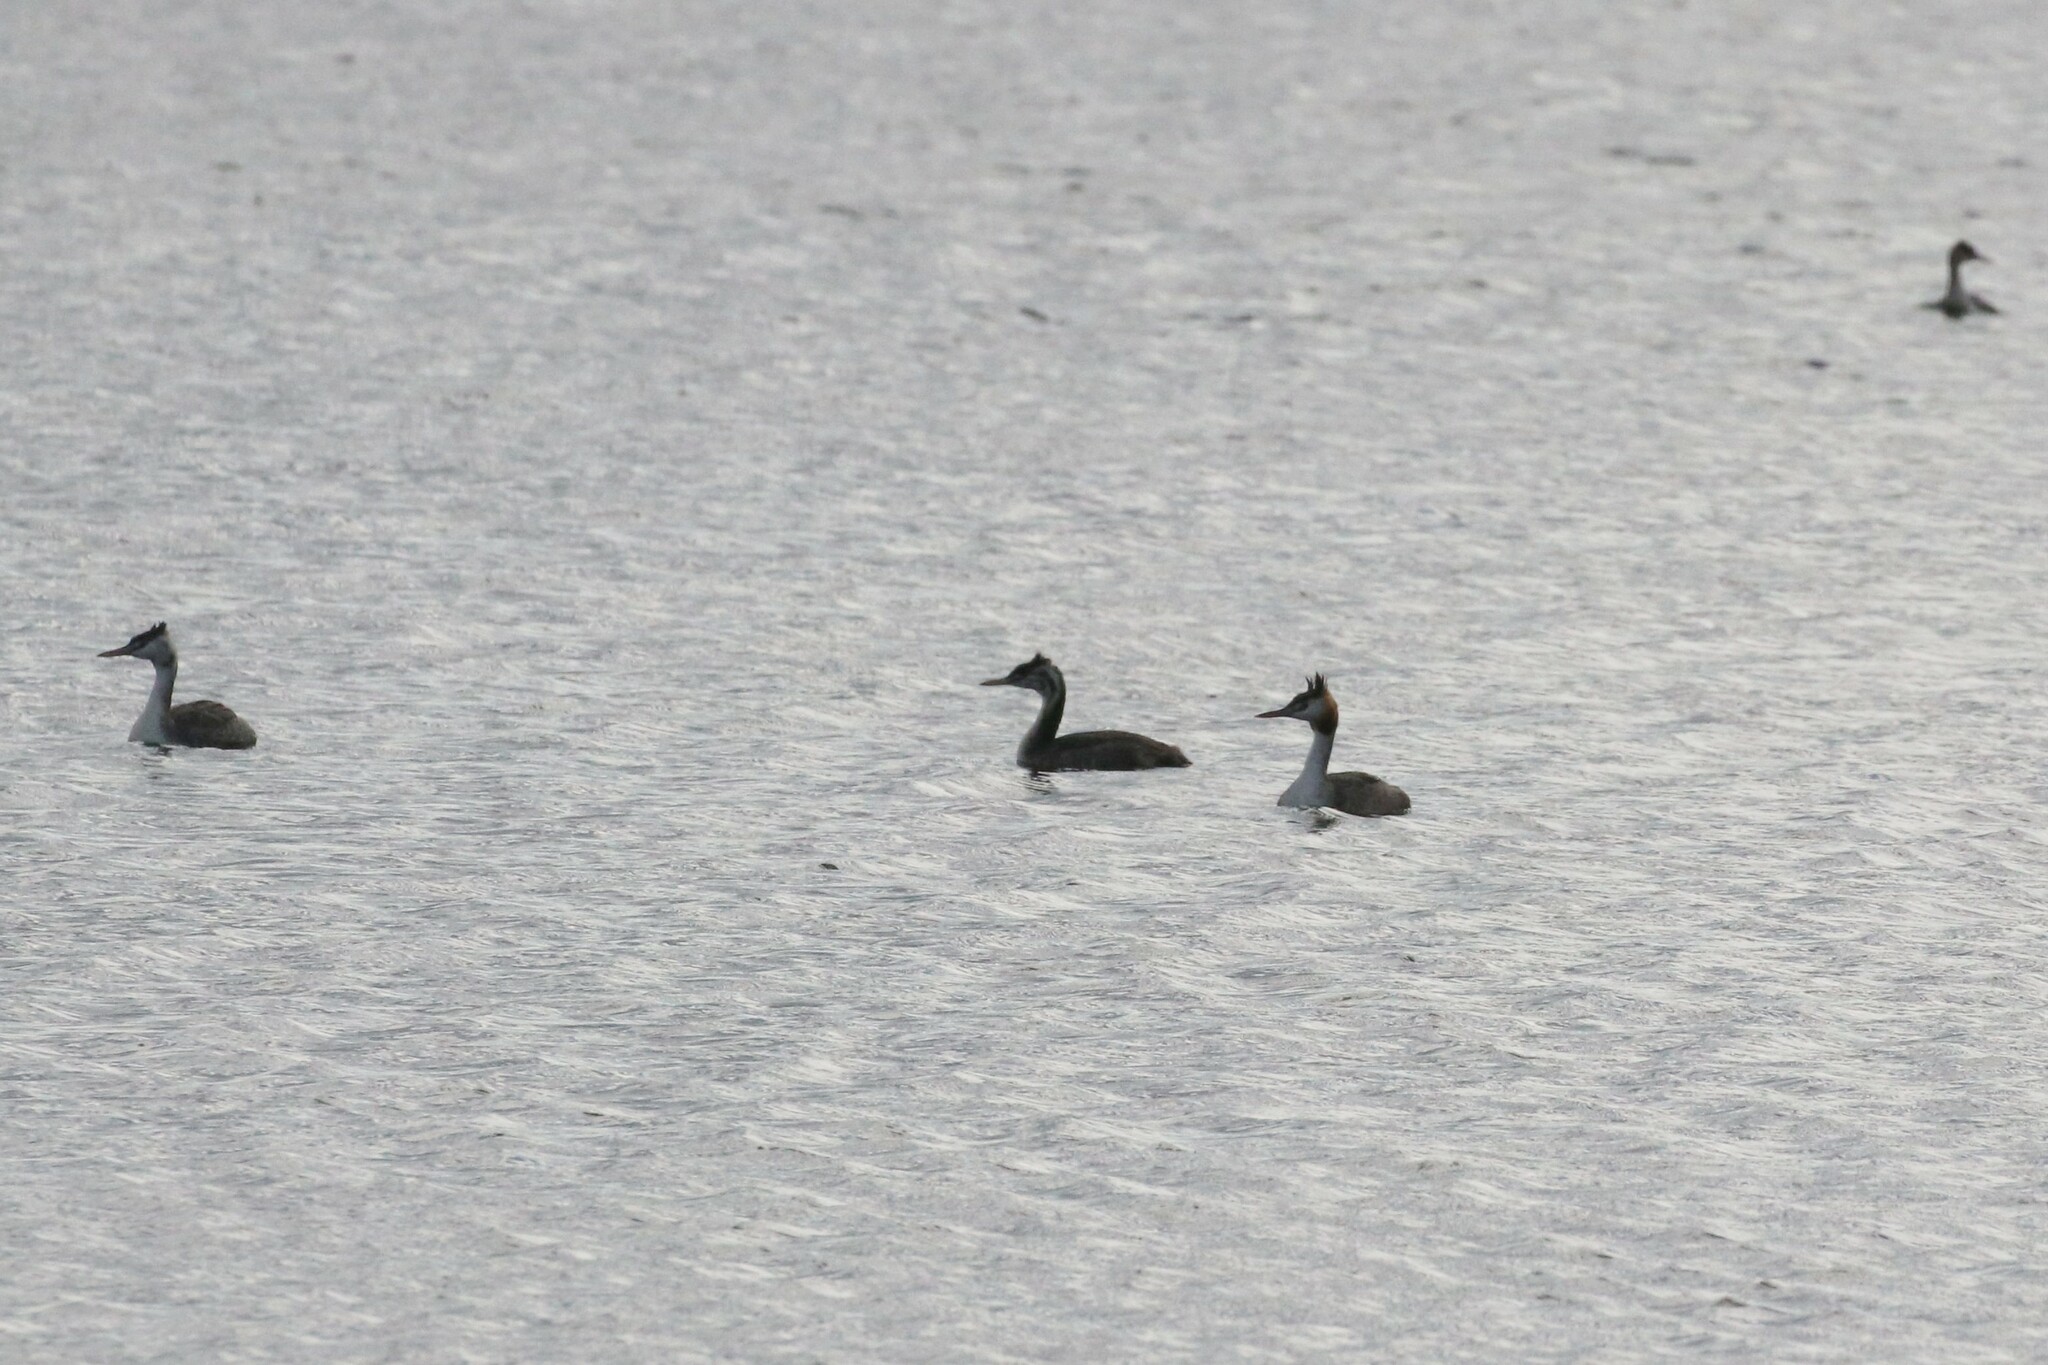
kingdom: Animalia
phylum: Chordata
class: Aves
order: Podicipediformes
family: Podicipedidae
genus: Podiceps
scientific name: Podiceps cristatus
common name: Great crested grebe
